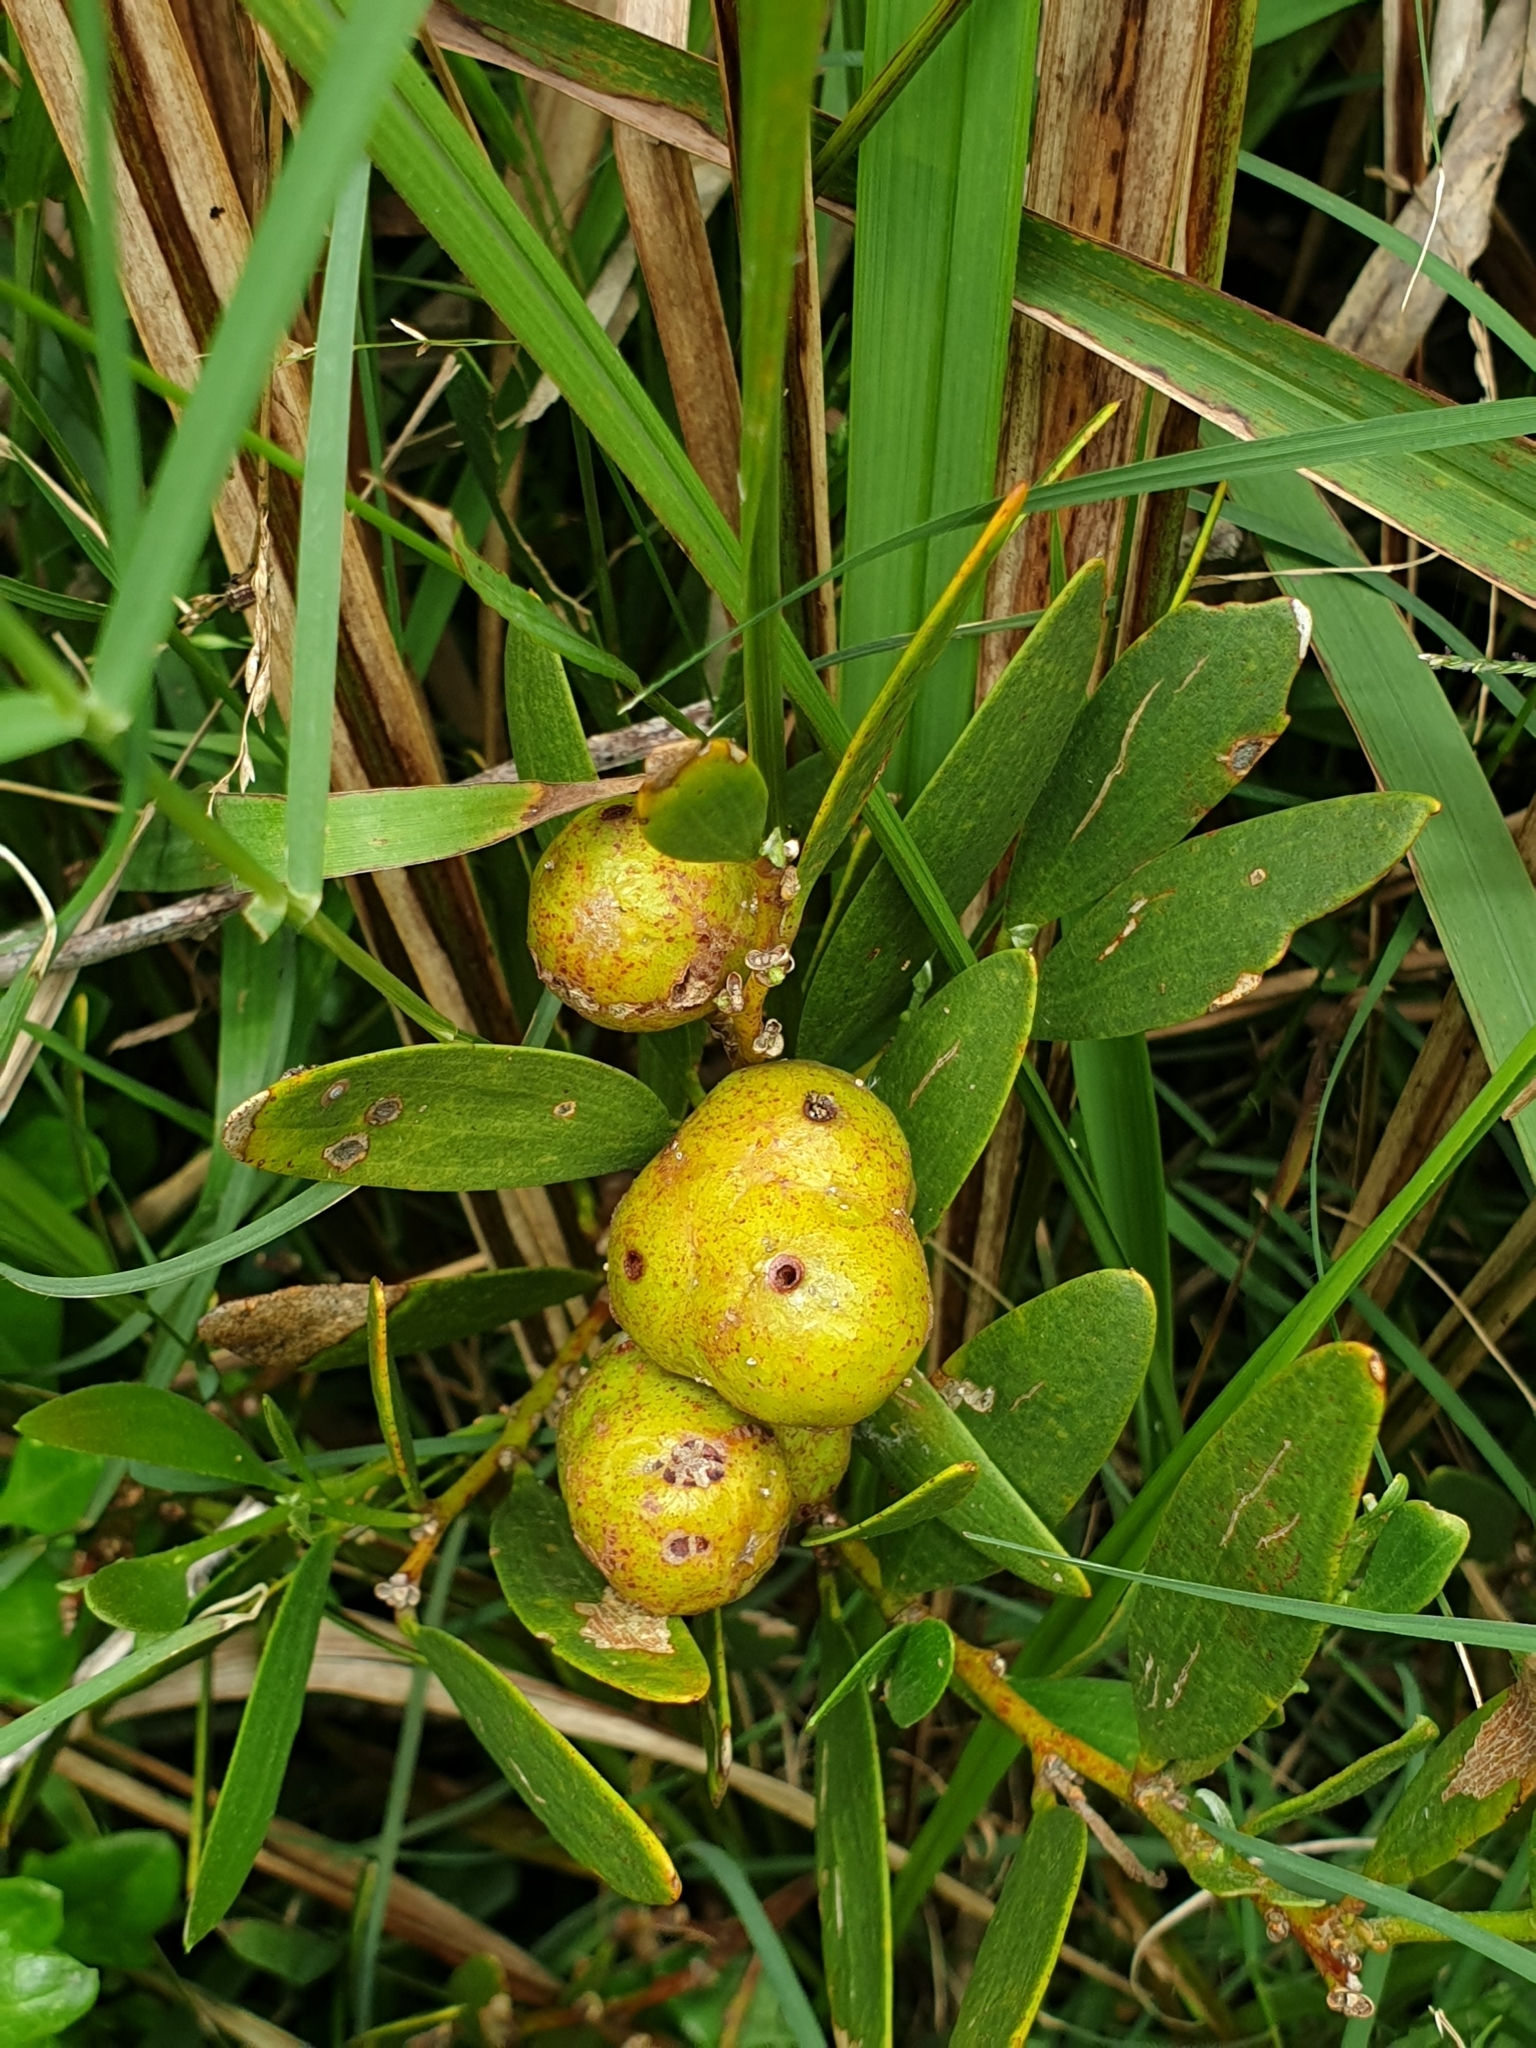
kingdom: Animalia
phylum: Arthropoda
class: Insecta
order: Hymenoptera
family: Pteromalidae
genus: Trichilogaster
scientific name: Trichilogaster acaciaelongifoliae
